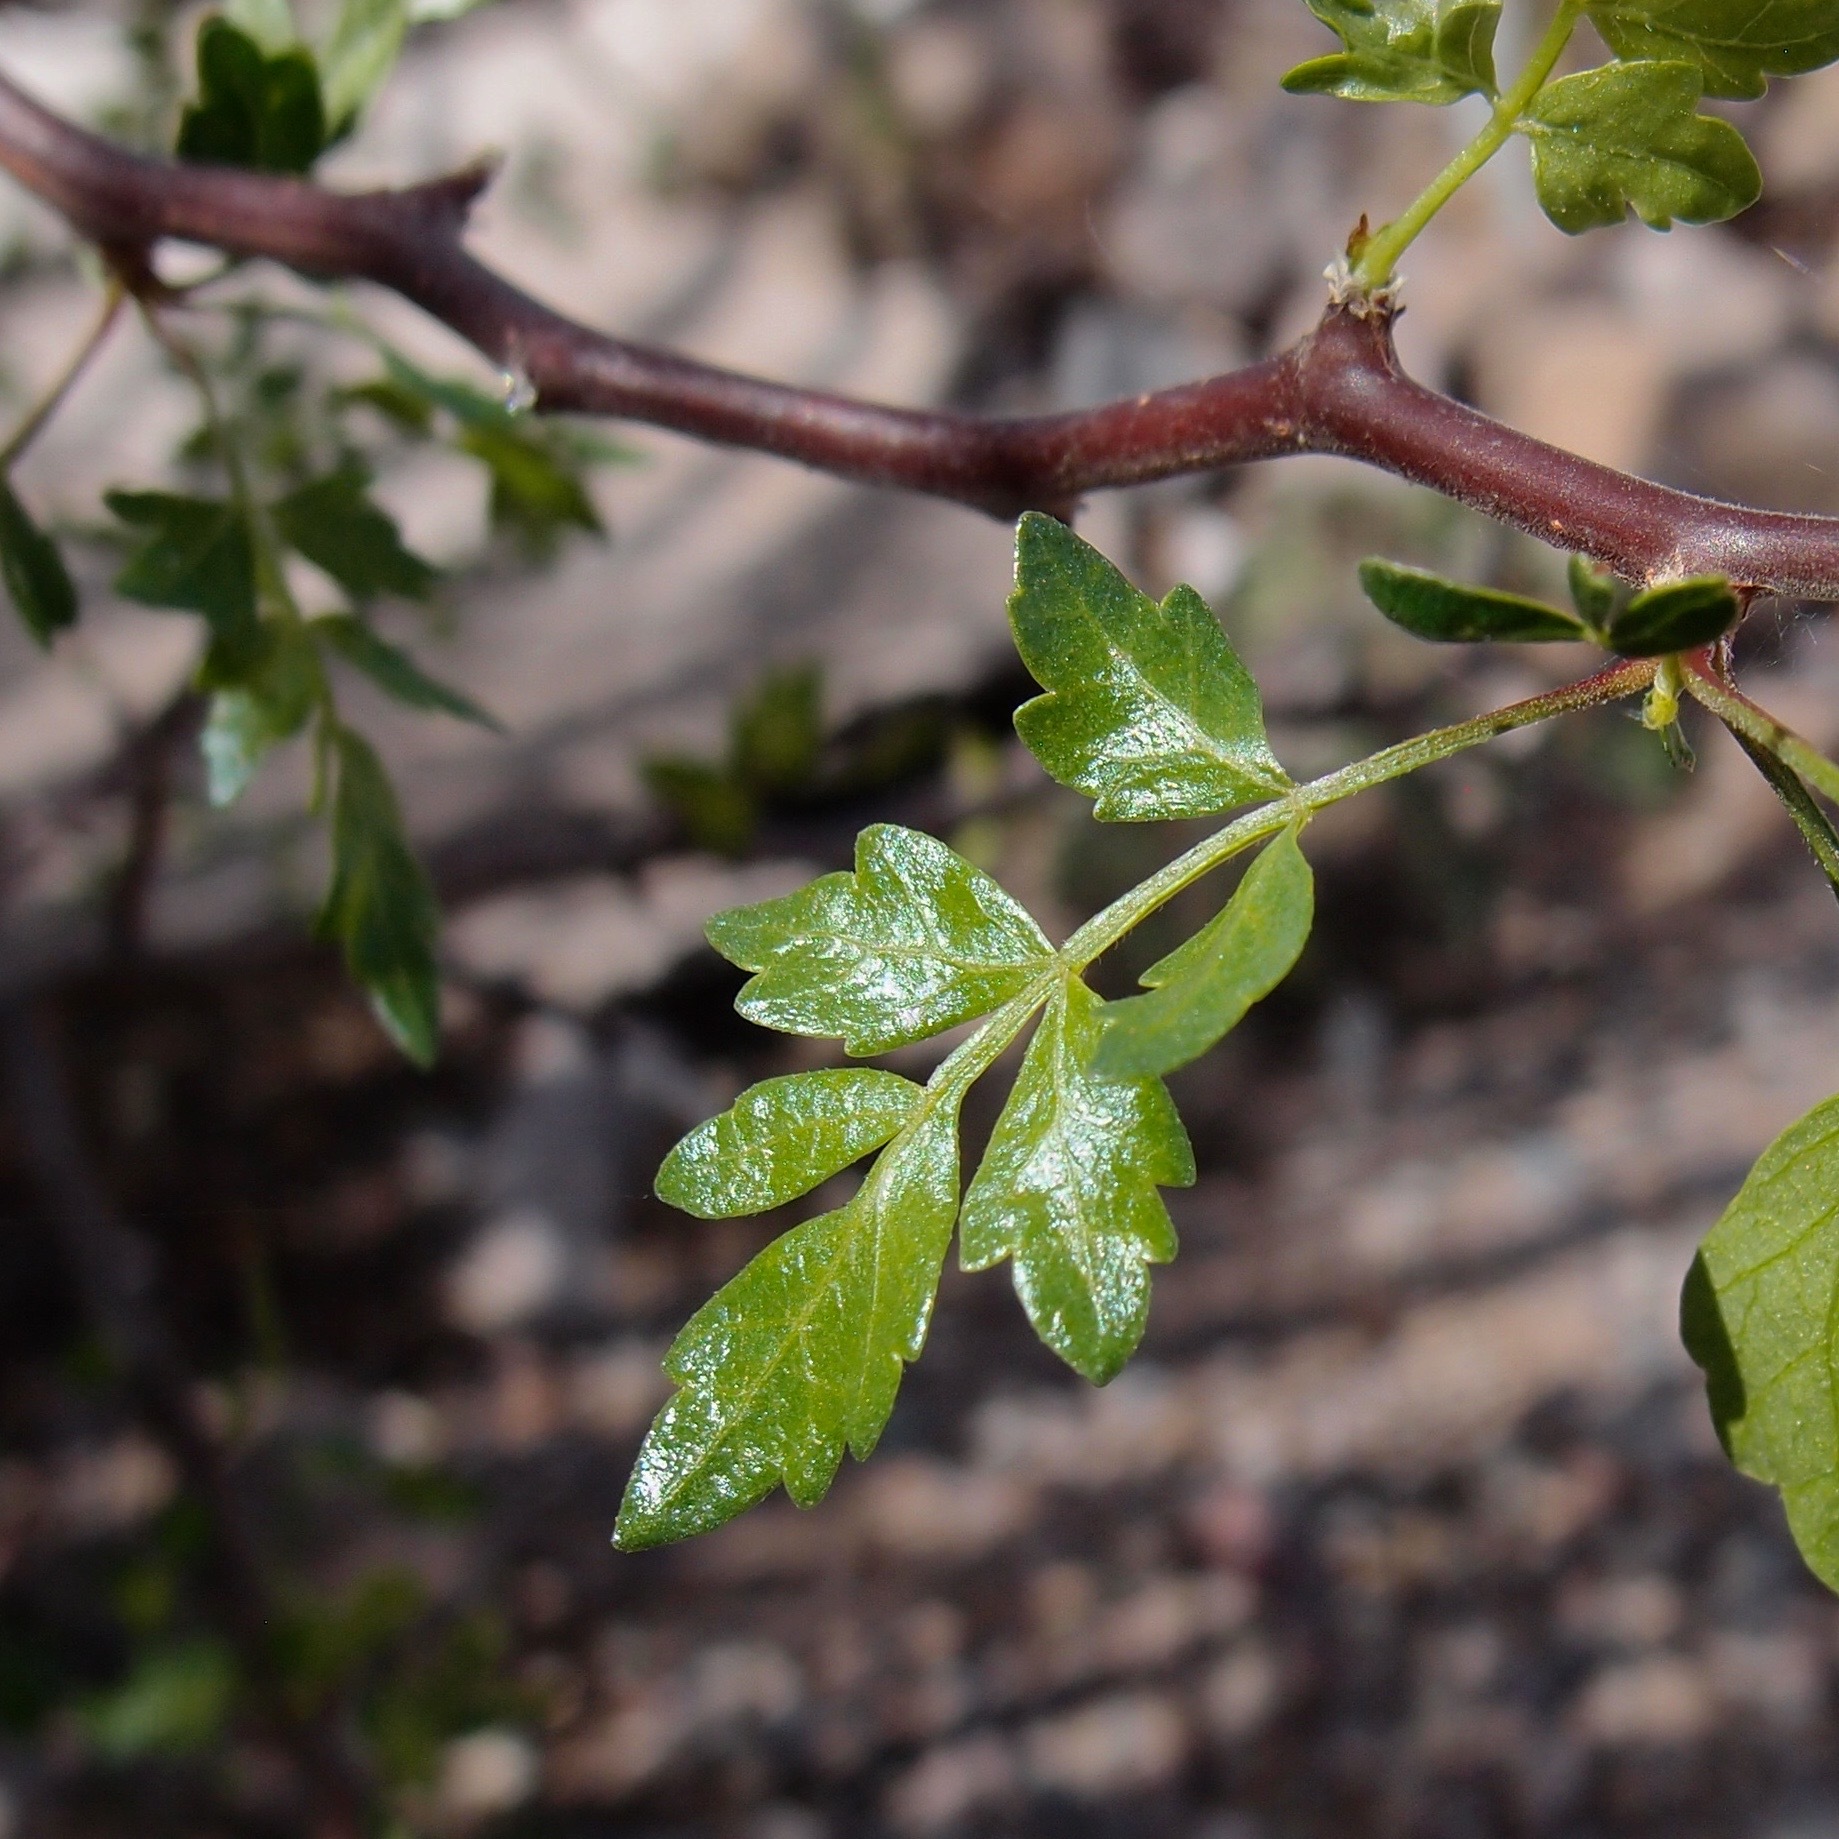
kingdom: Plantae
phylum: Tracheophyta
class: Magnoliopsida
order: Sapindales
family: Burseraceae
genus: Bursera
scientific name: Bursera laxiflora
